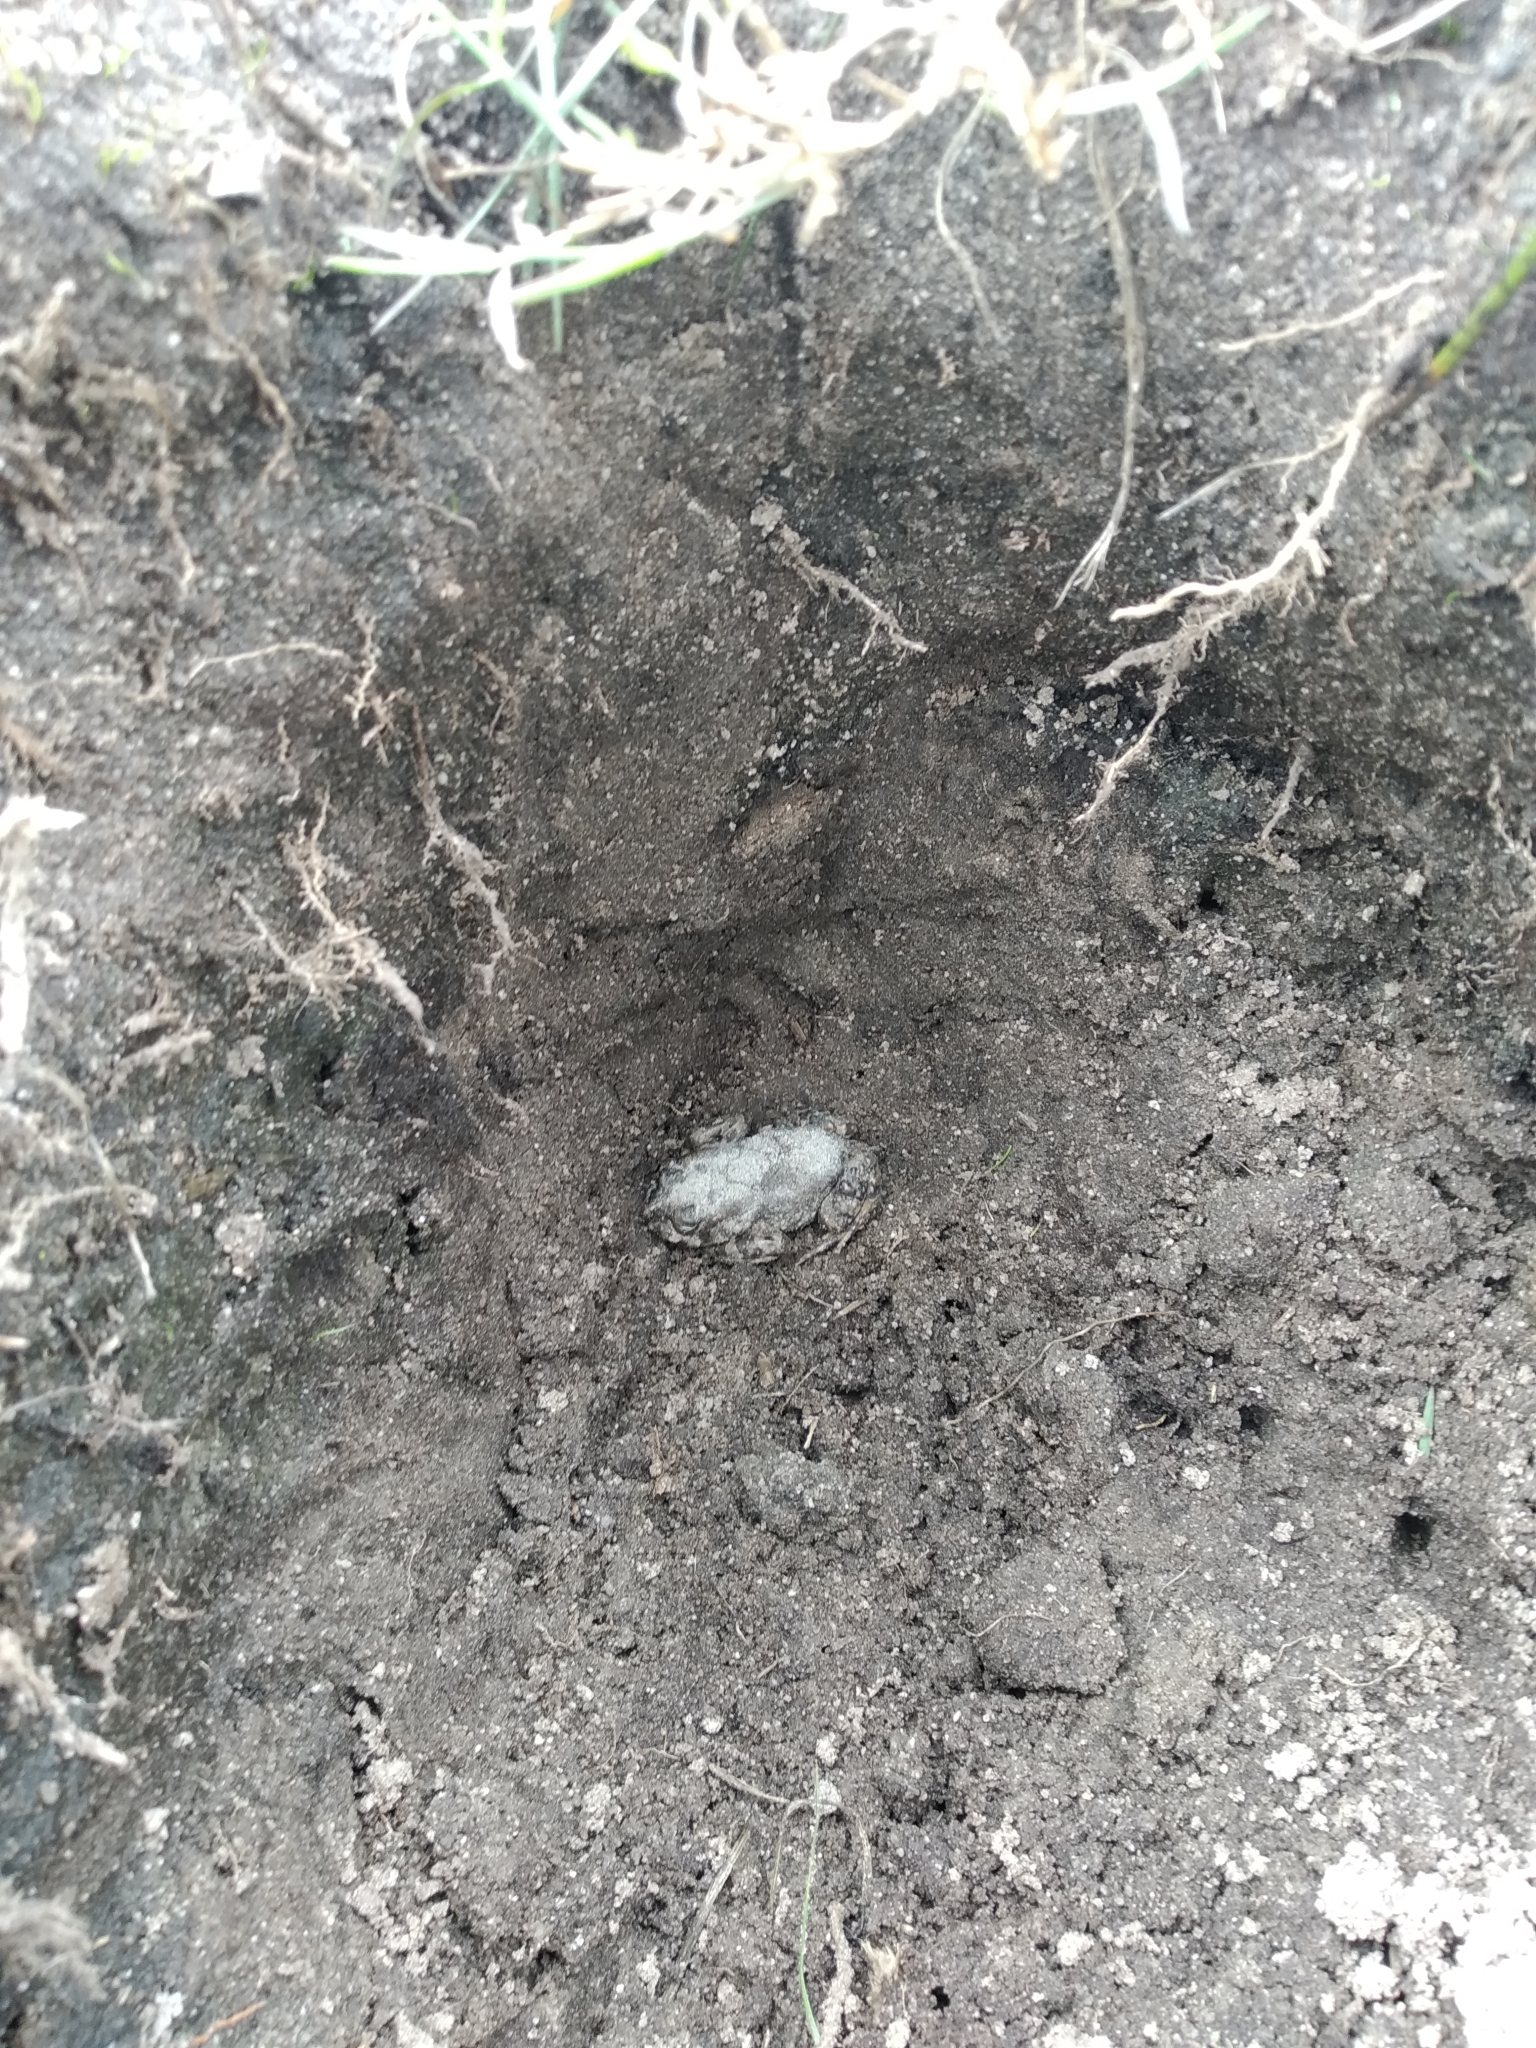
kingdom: Animalia
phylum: Chordata
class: Amphibia
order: Anura
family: Bufonidae
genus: Vandijkophrynus
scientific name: Vandijkophrynus angusticeps
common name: Sand toad
